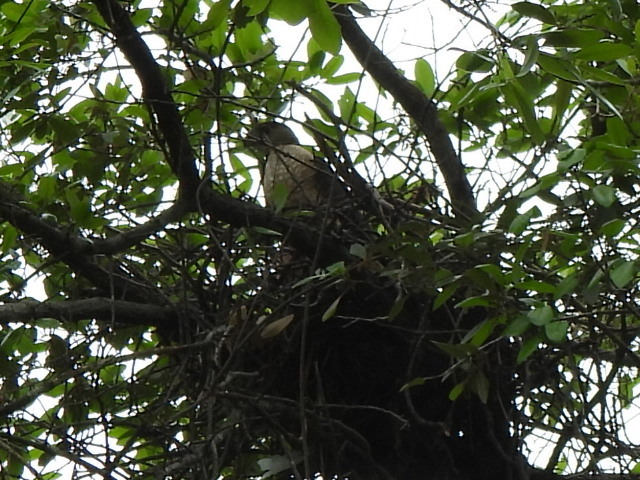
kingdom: Animalia
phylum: Chordata
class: Aves
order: Accipitriformes
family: Accipitridae
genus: Accipiter
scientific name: Accipiter cooperii
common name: Cooper's hawk
